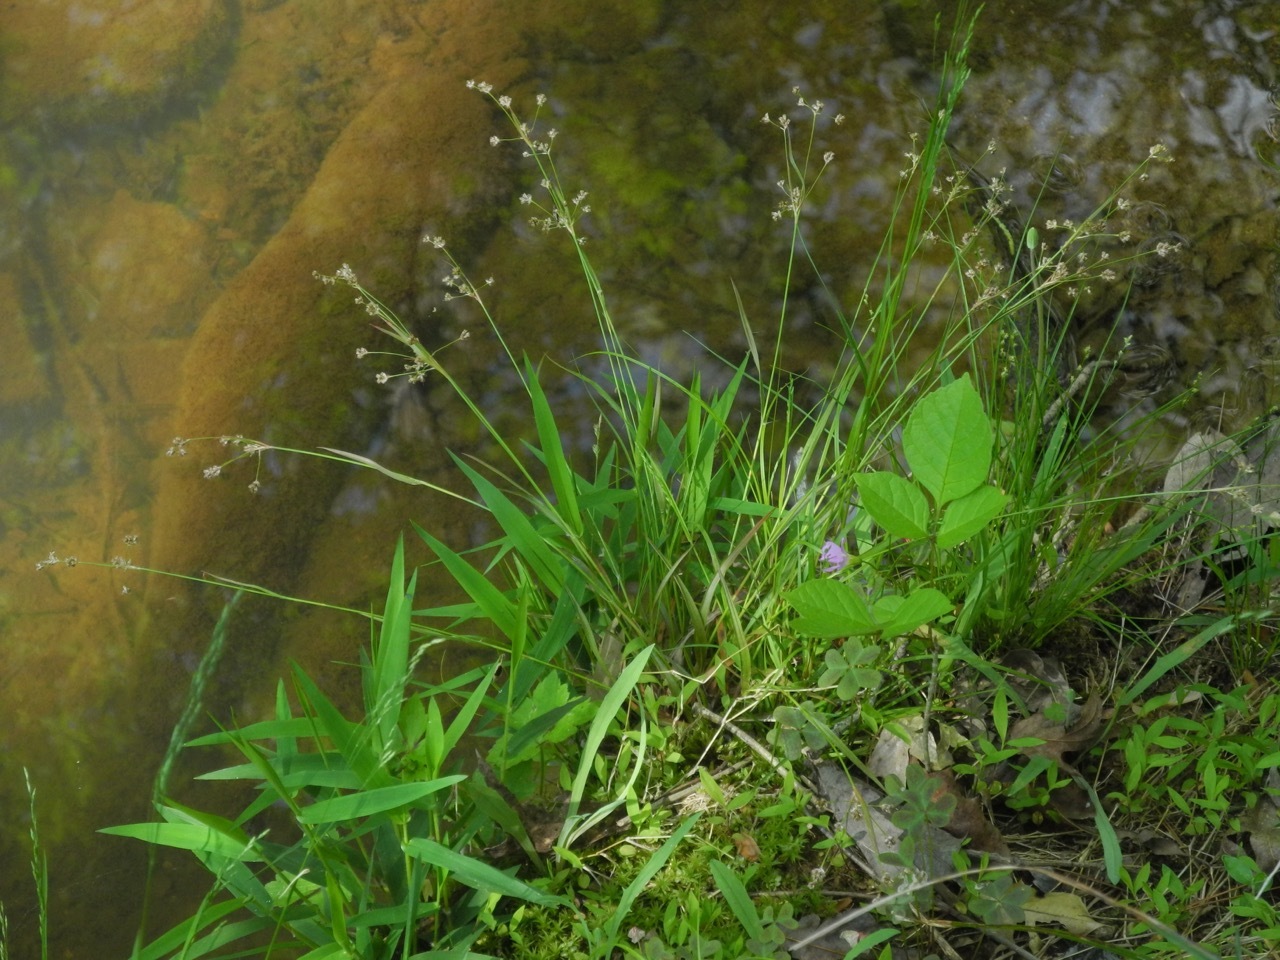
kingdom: Plantae
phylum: Tracheophyta
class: Liliopsida
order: Poales
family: Juncaceae
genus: Luzula
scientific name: Luzula echinata
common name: Hedgehog woodrush
